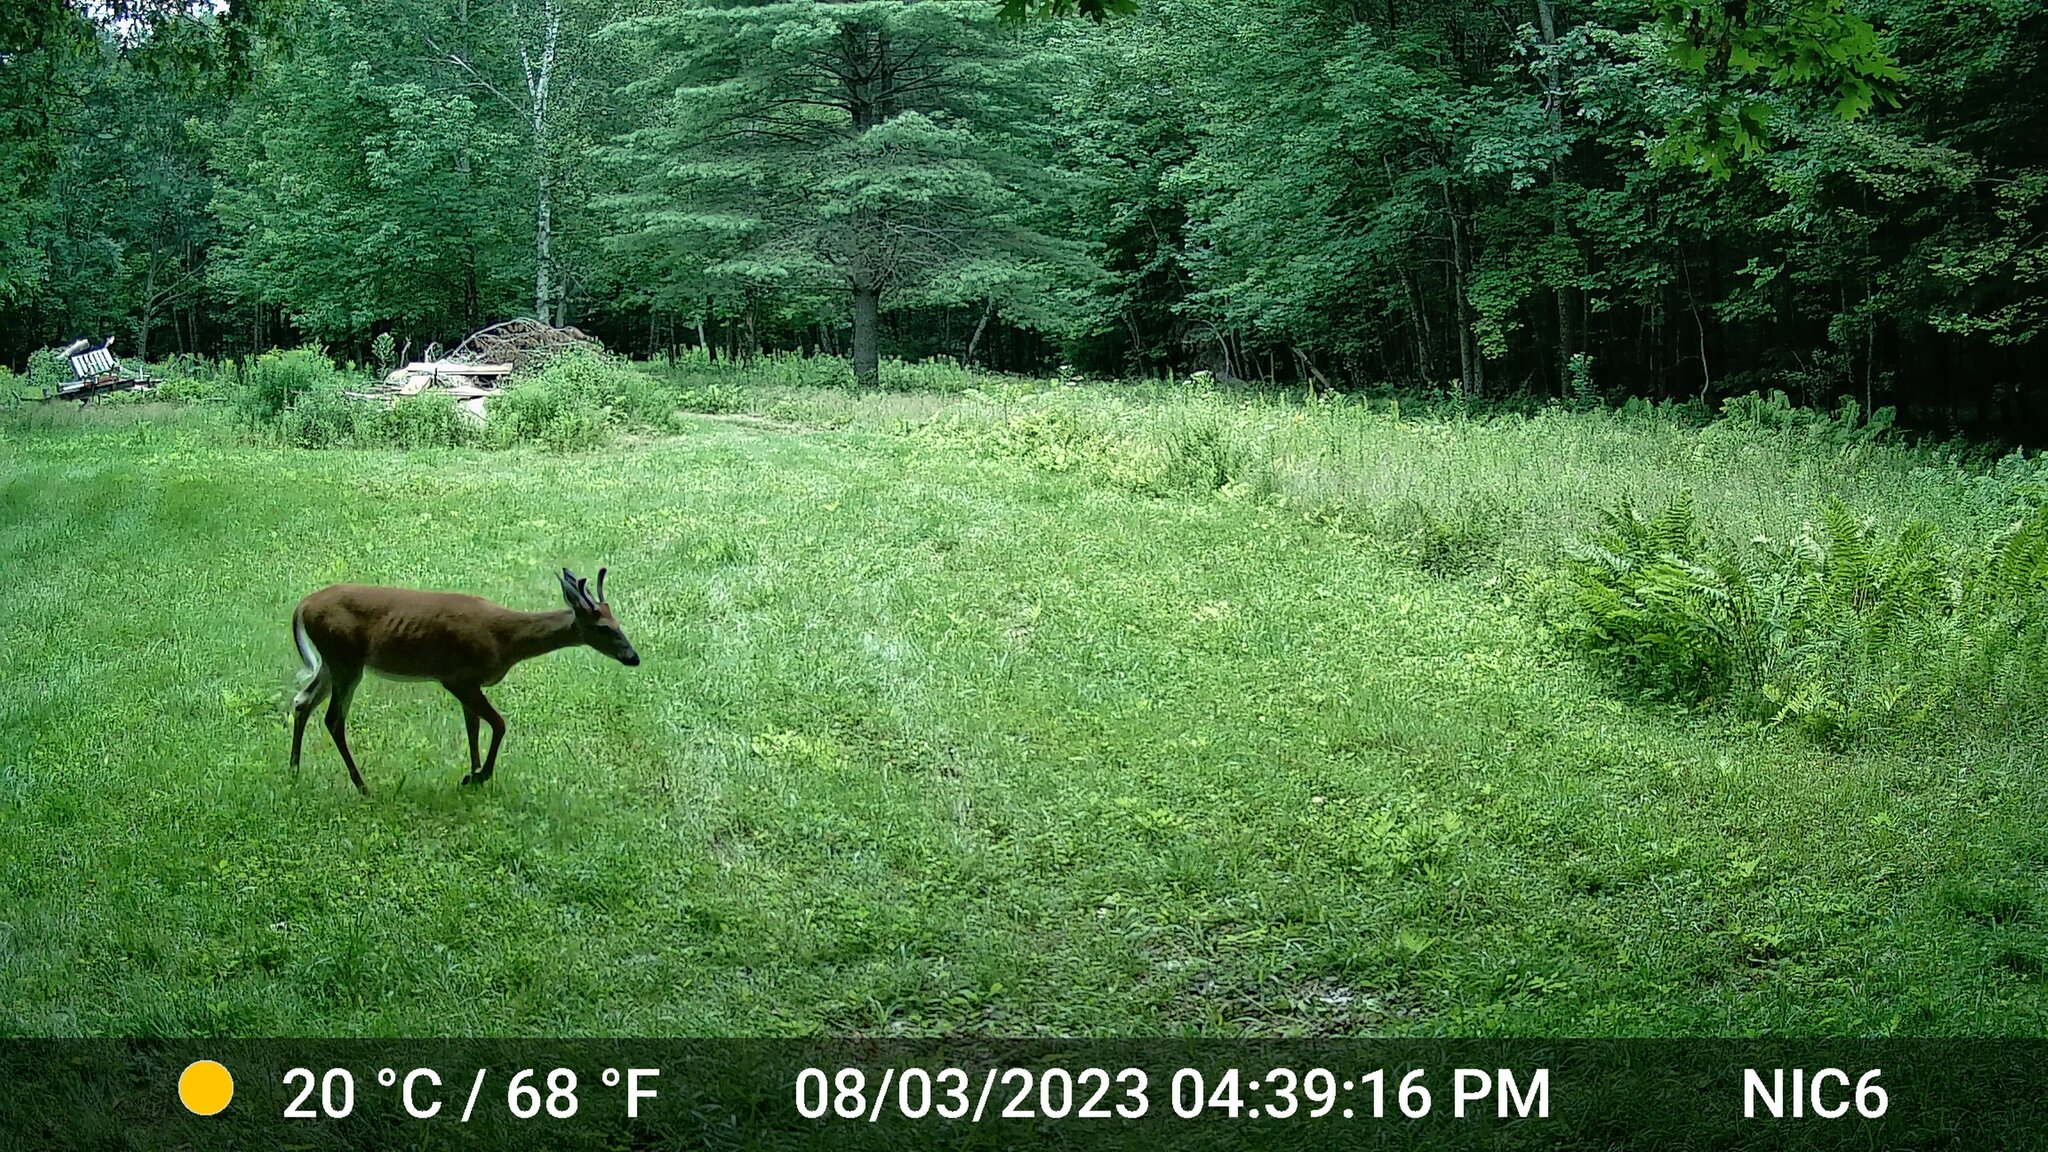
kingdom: Animalia
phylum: Chordata
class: Mammalia
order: Artiodactyla
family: Cervidae
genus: Odocoileus
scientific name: Odocoileus virginianus
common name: White-tailed deer
